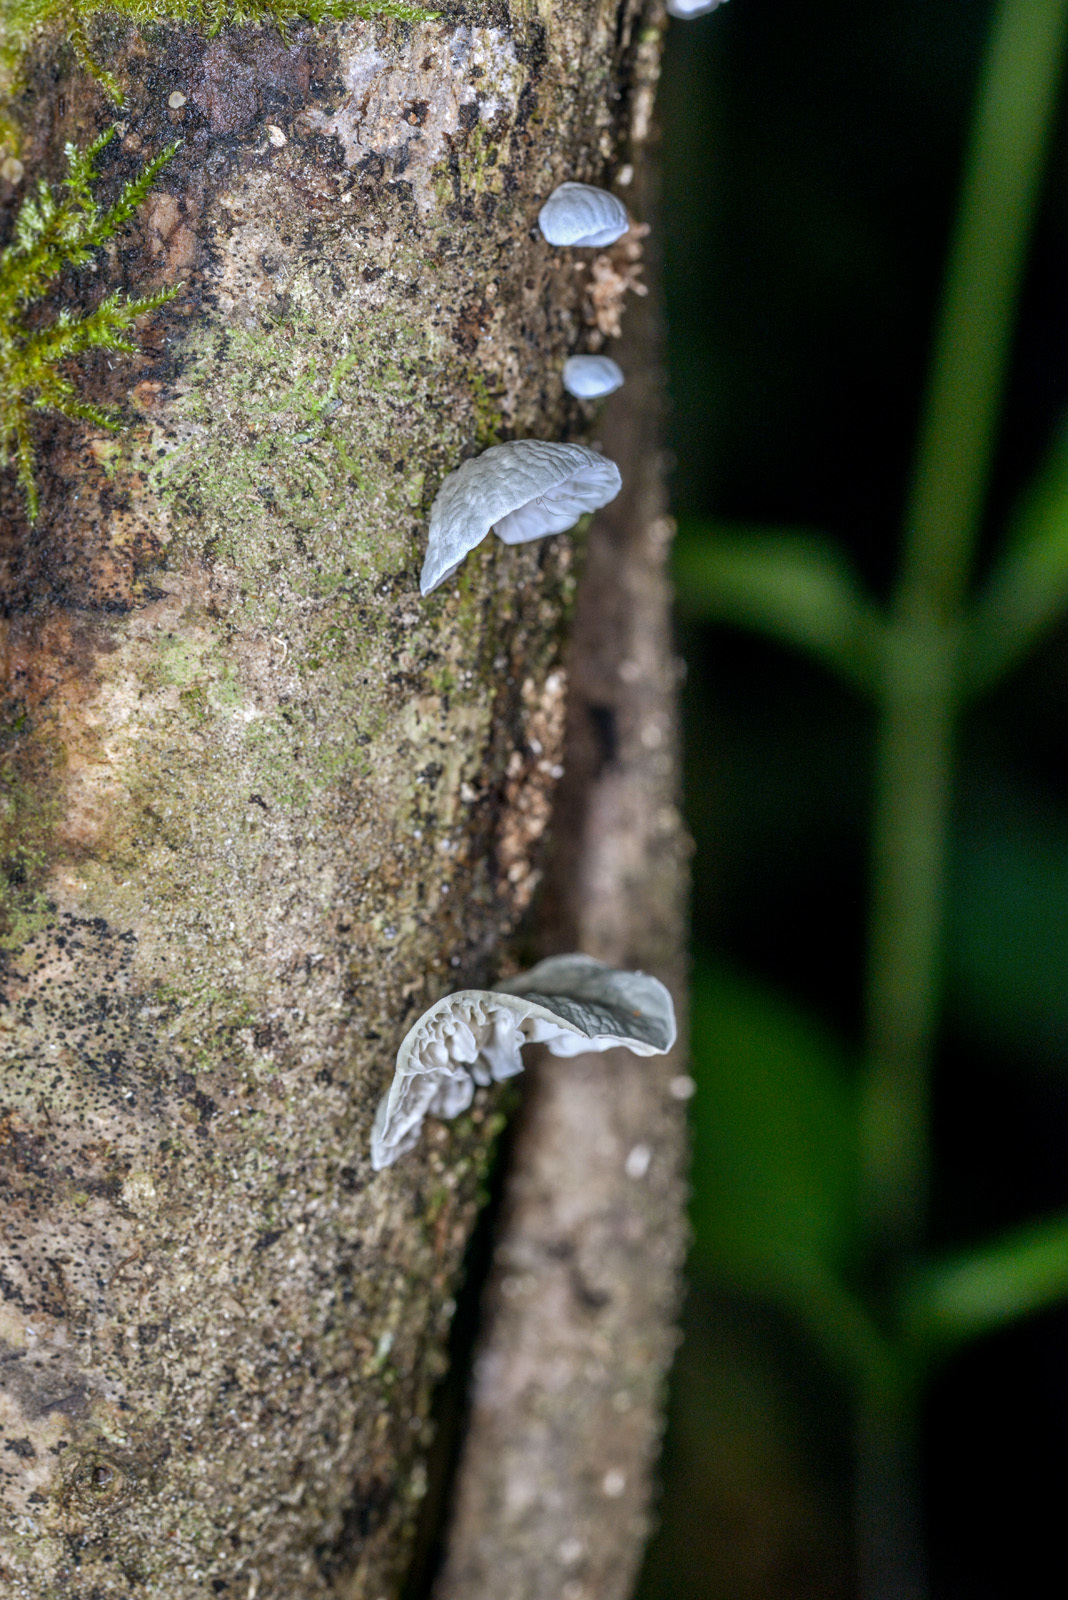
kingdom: Fungi
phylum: Basidiomycota
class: Agaricomycetes
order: Agaricales
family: Marasmiaceae
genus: Campanella
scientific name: Campanella tristis
